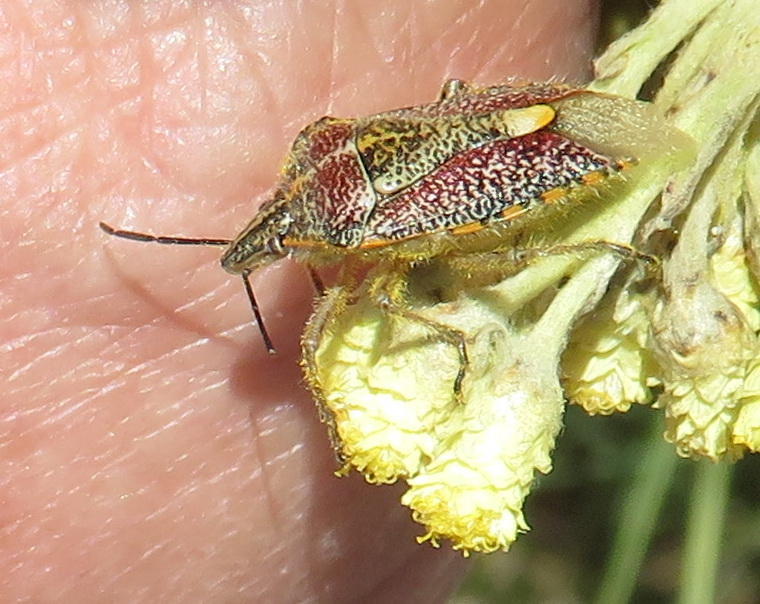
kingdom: Animalia
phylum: Arthropoda
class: Insecta
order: Hemiptera
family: Pentatomidae
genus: Agonoscelis
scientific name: Agonoscelis erosa
